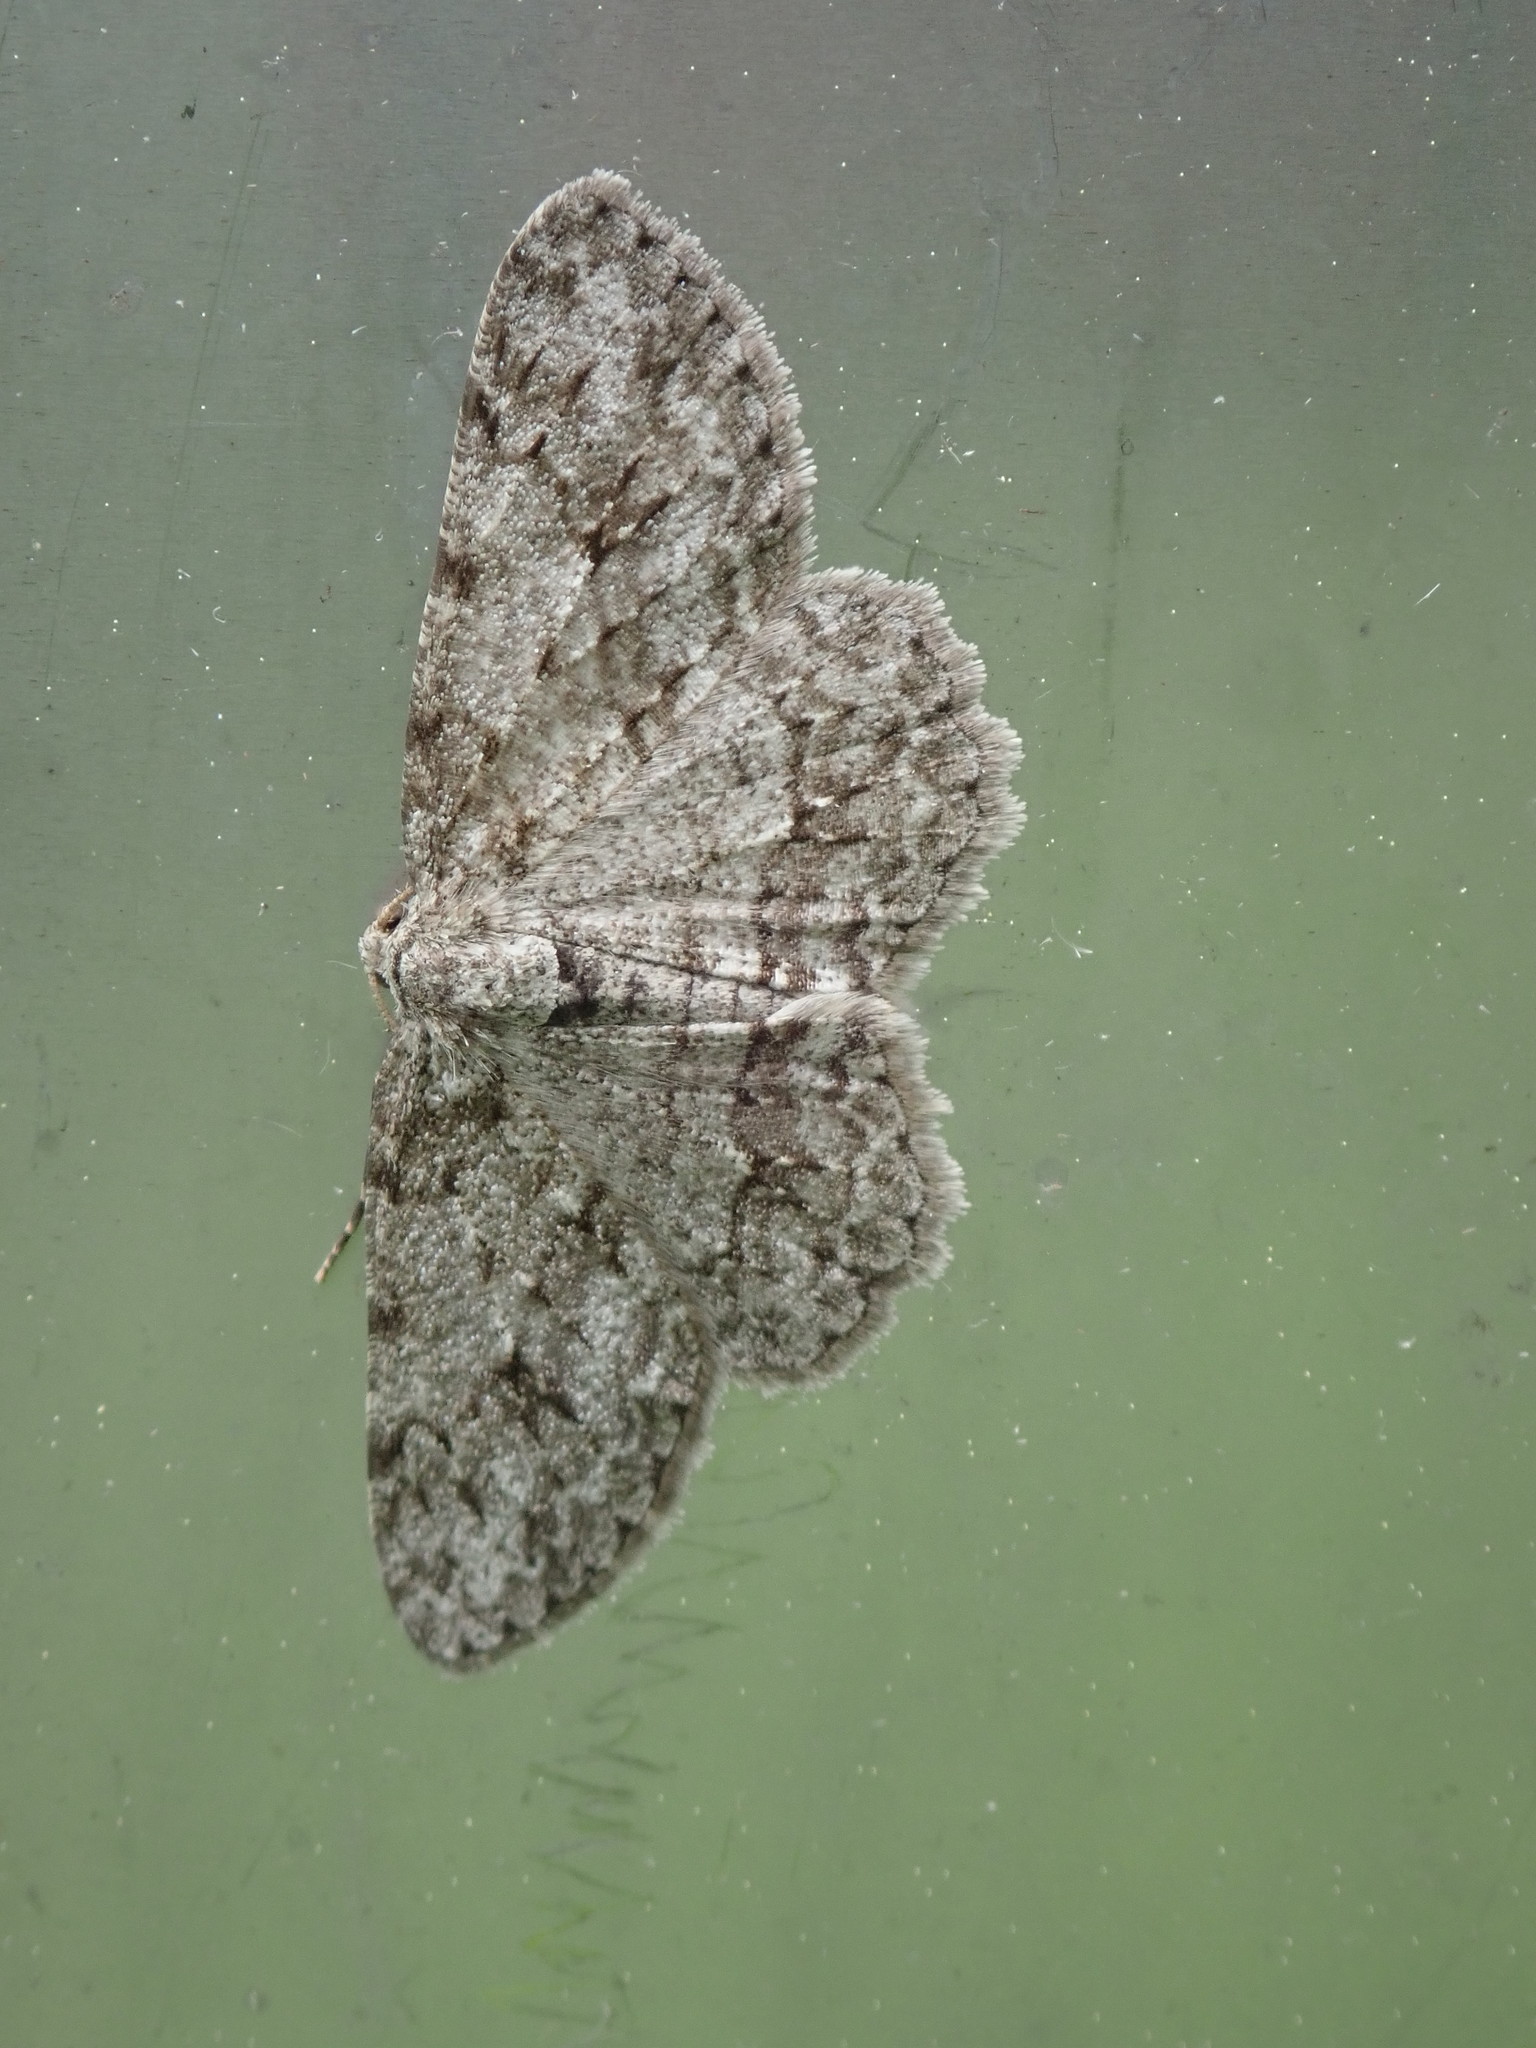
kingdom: Animalia
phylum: Arthropoda
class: Insecta
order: Lepidoptera
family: Geometridae
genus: Ectropis
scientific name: Ectropis crepuscularia
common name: Engrailed
